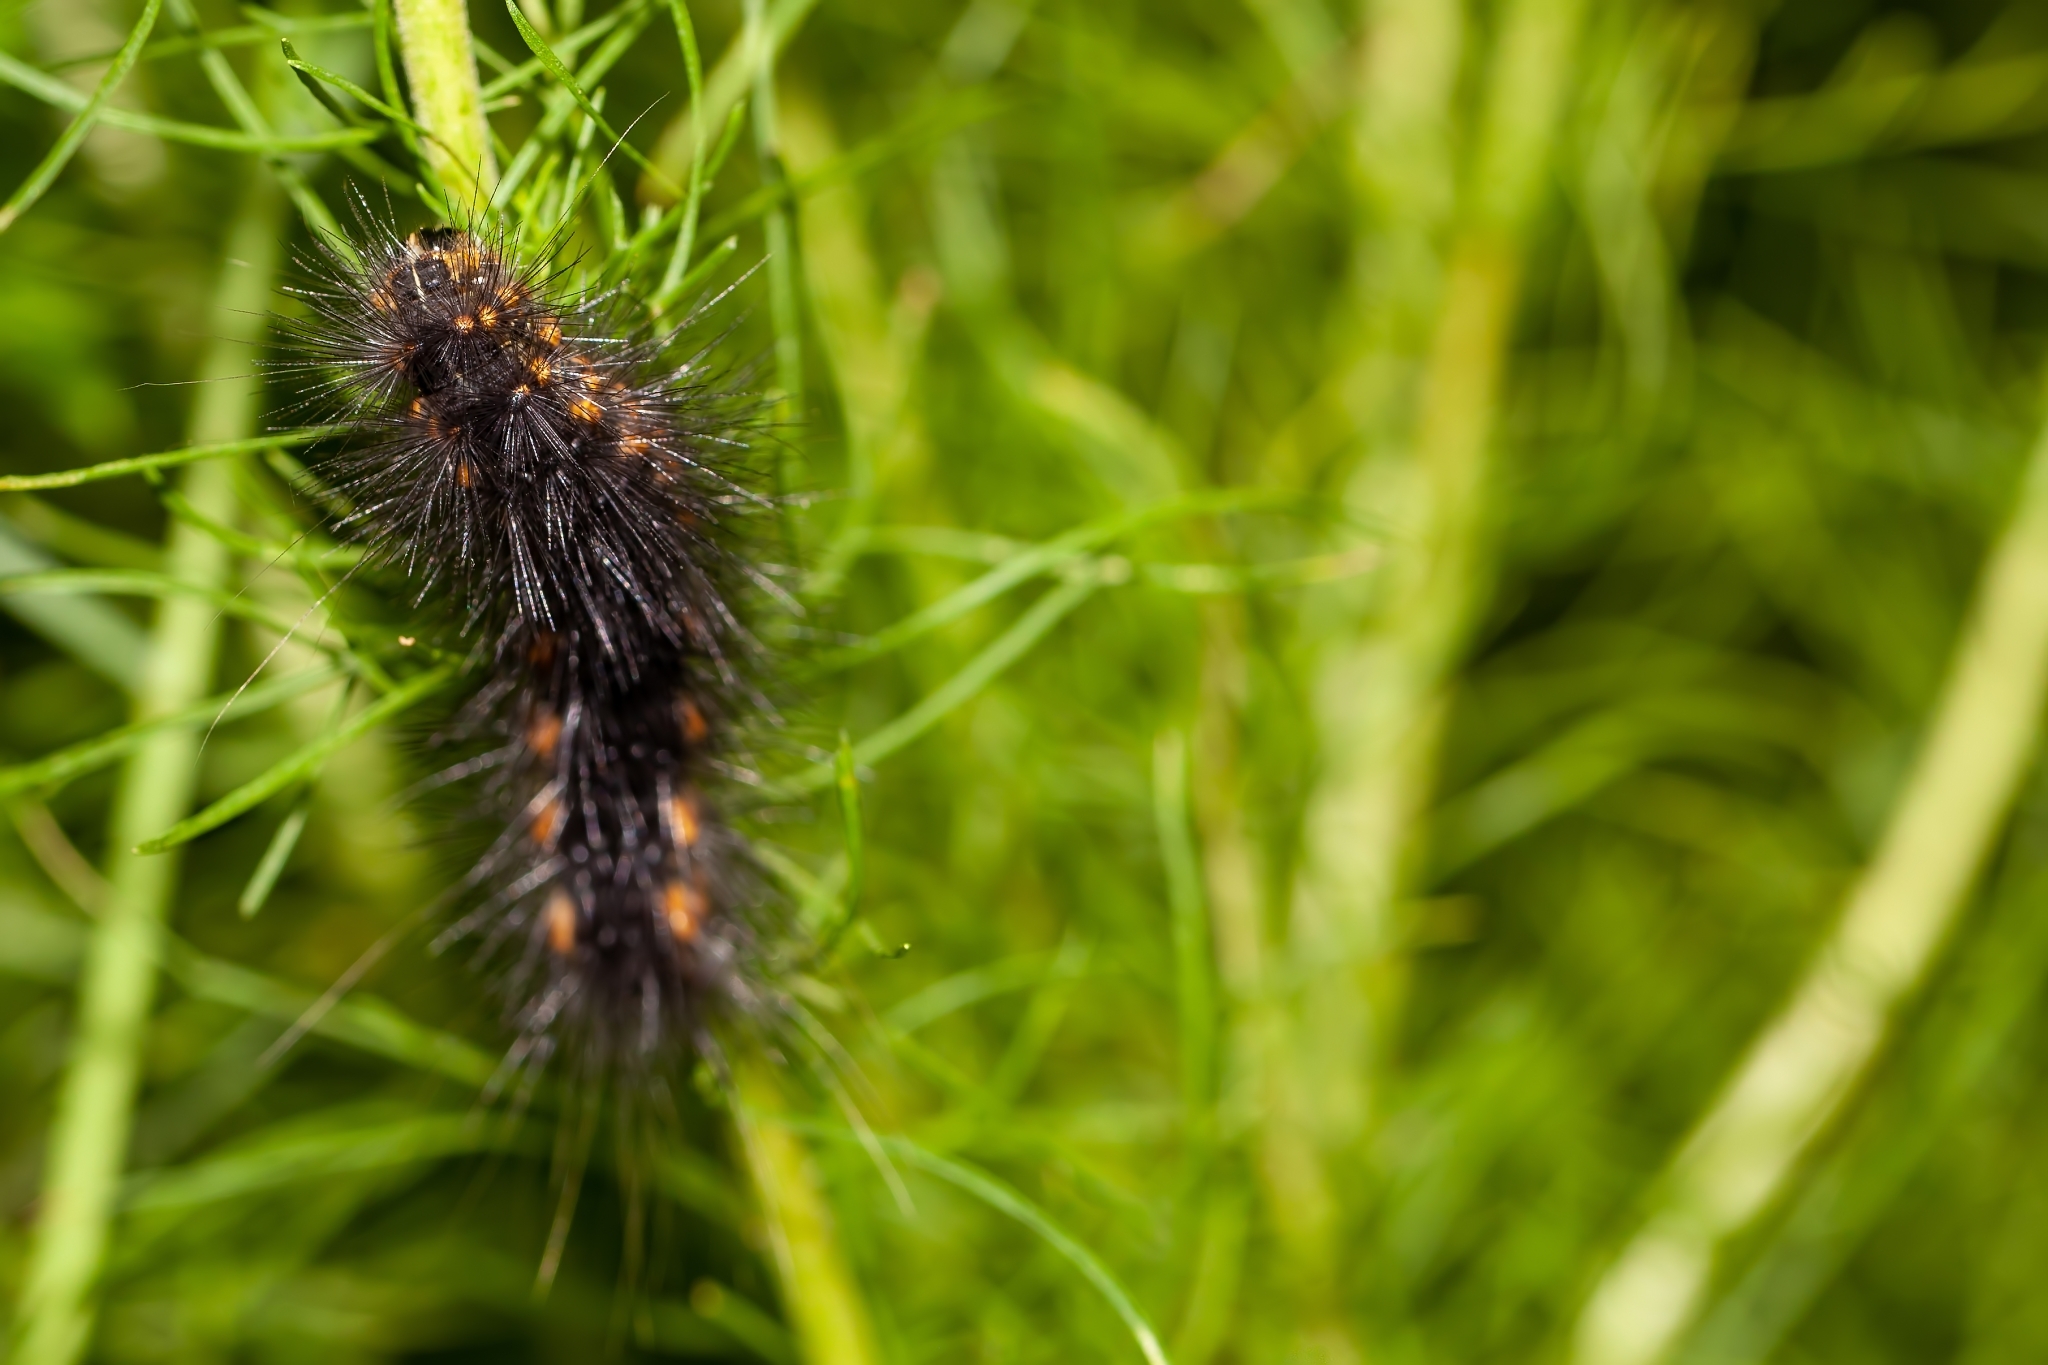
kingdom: Animalia
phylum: Arthropoda
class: Insecta
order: Lepidoptera
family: Erebidae
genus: Estigmene
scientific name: Estigmene acrea
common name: Salt marsh moth
